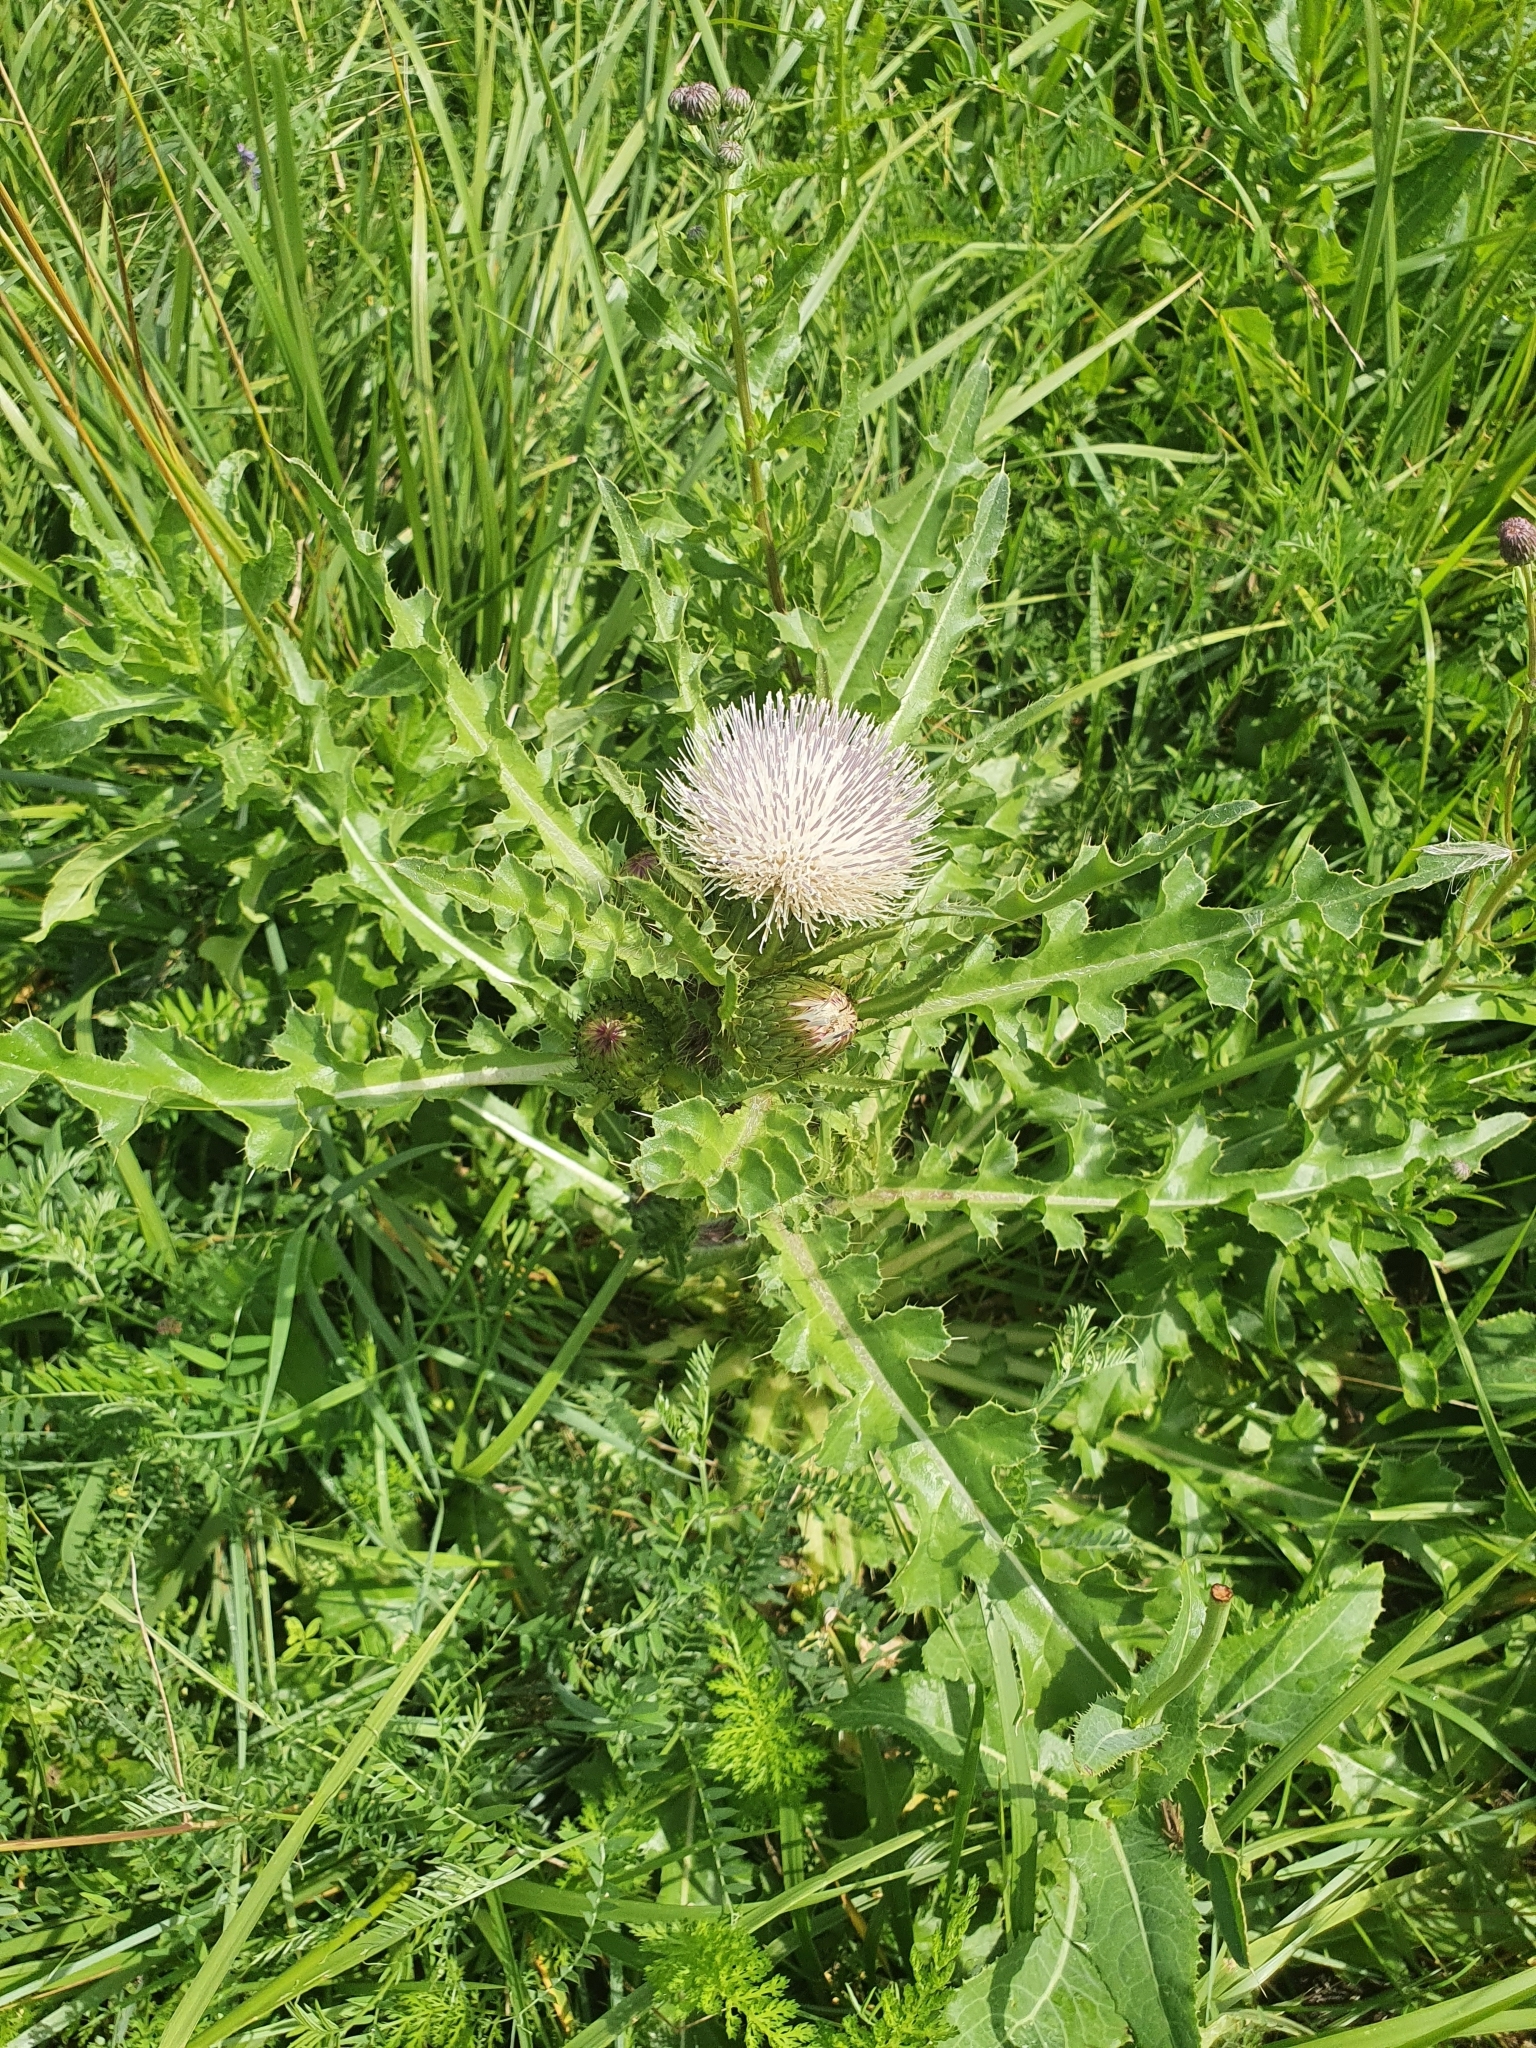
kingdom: Plantae
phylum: Tracheophyta
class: Magnoliopsida
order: Asterales
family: Asteraceae
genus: Cirsium
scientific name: Cirsium esculentum
